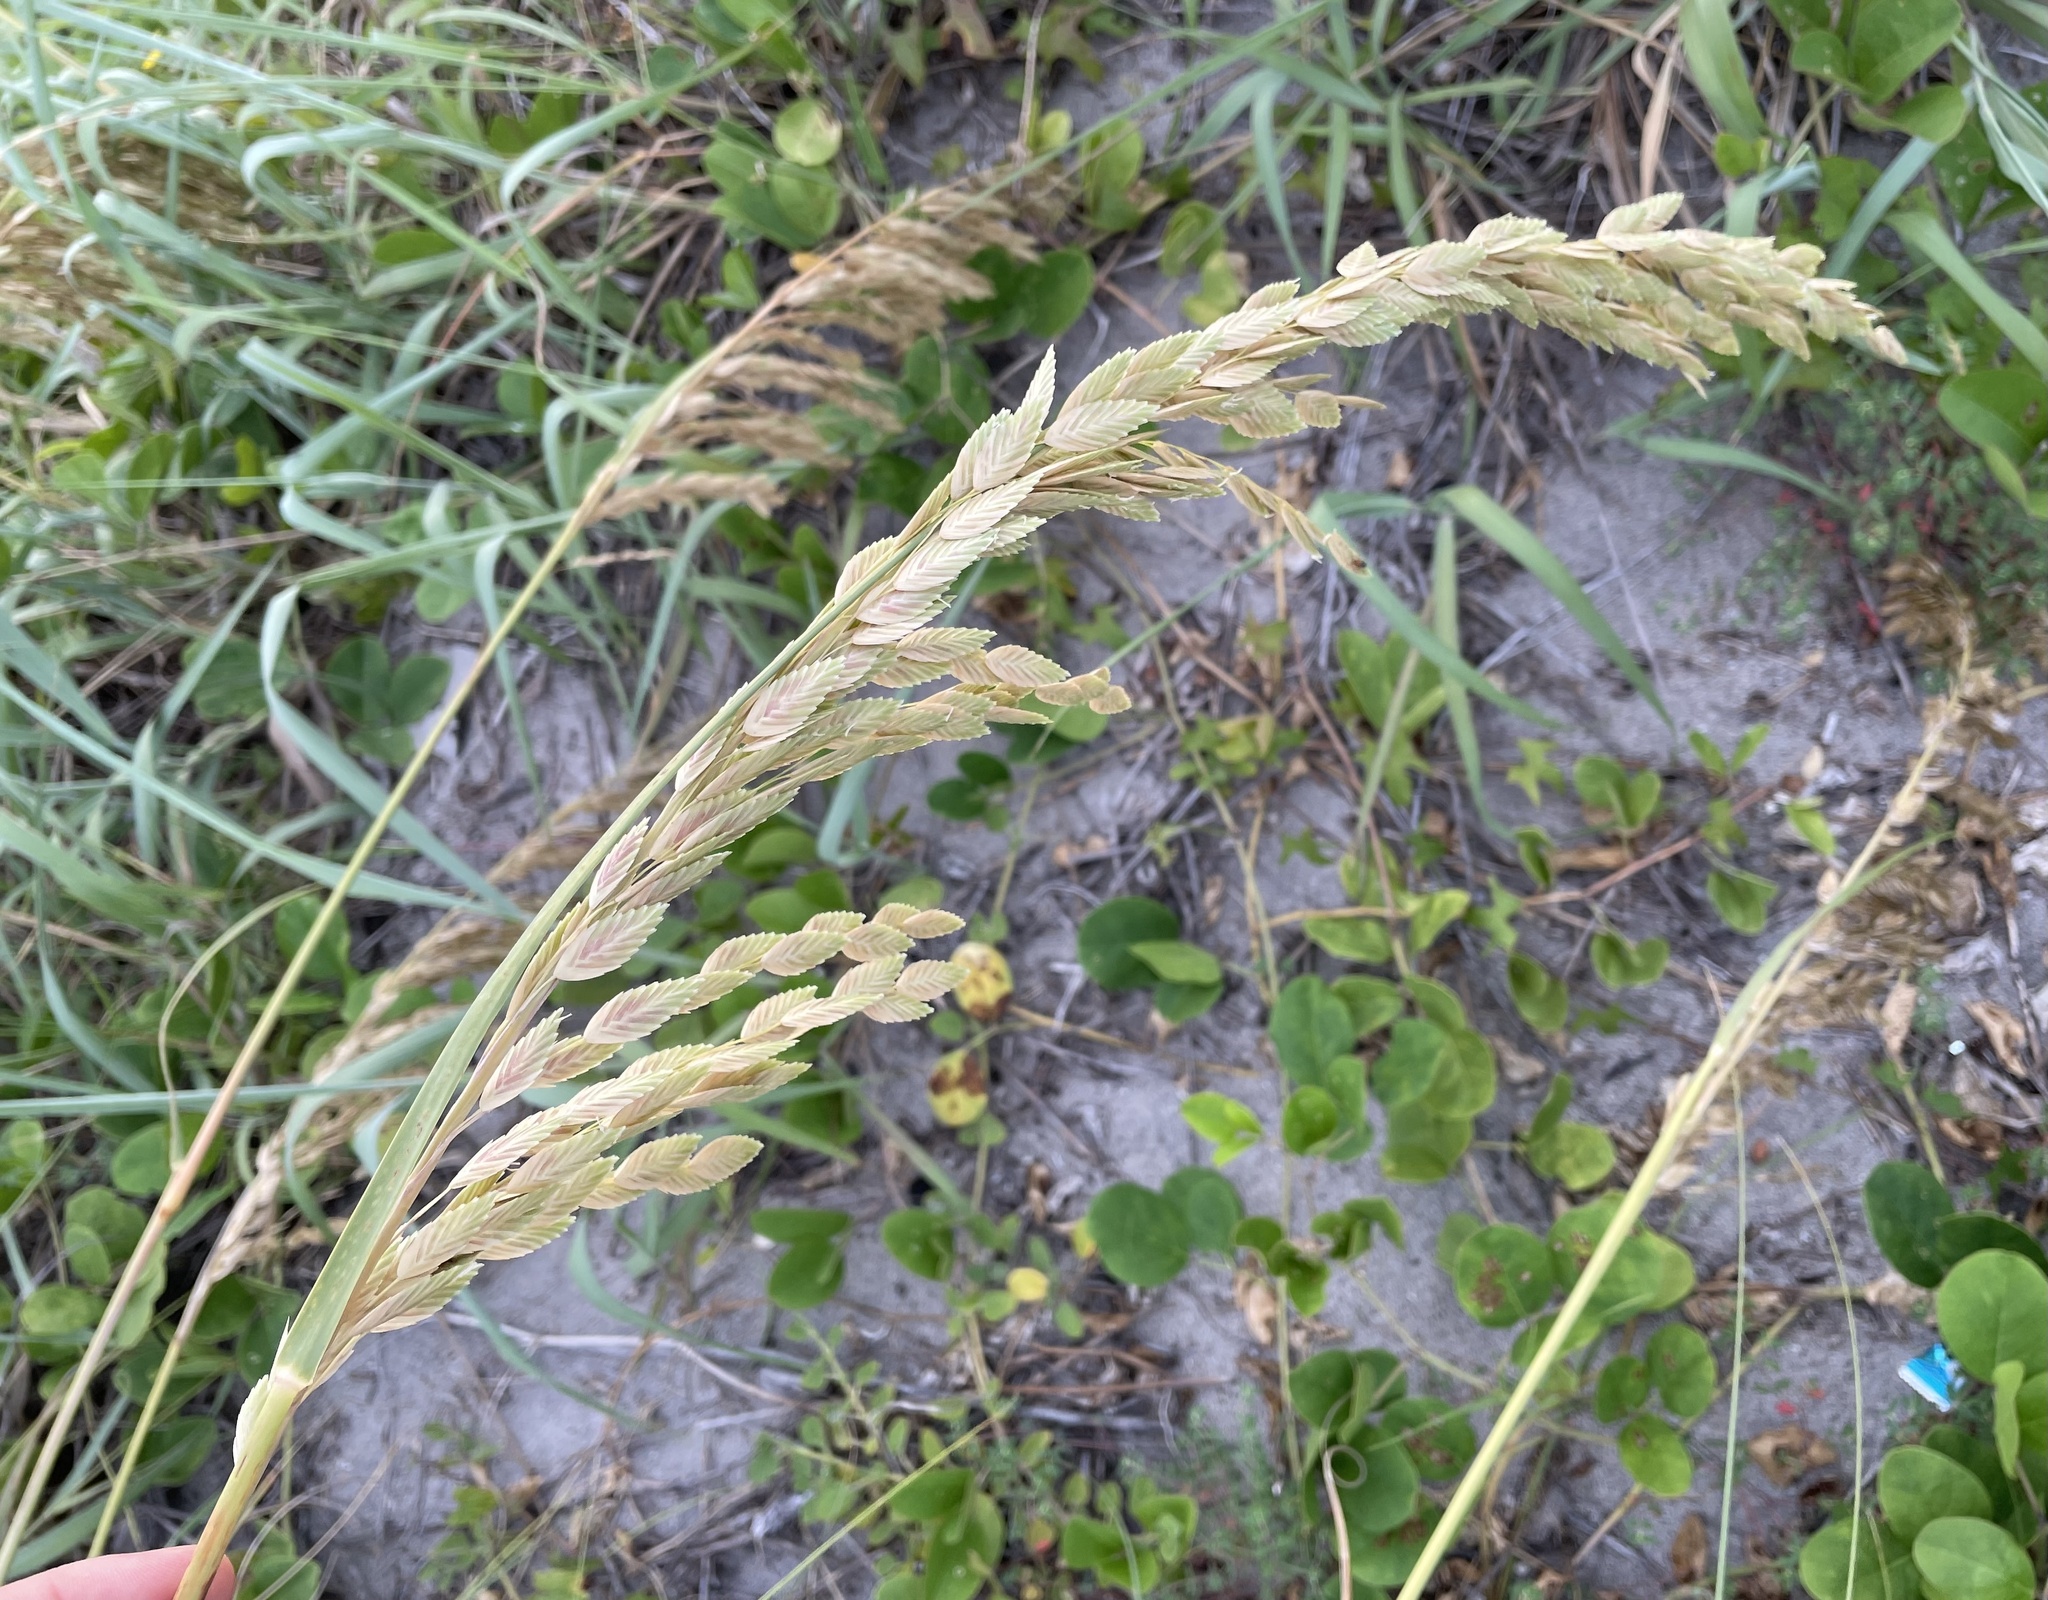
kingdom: Plantae
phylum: Tracheophyta
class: Liliopsida
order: Poales
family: Poaceae
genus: Uniola
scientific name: Uniola paniculata
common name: Seaside-oats
